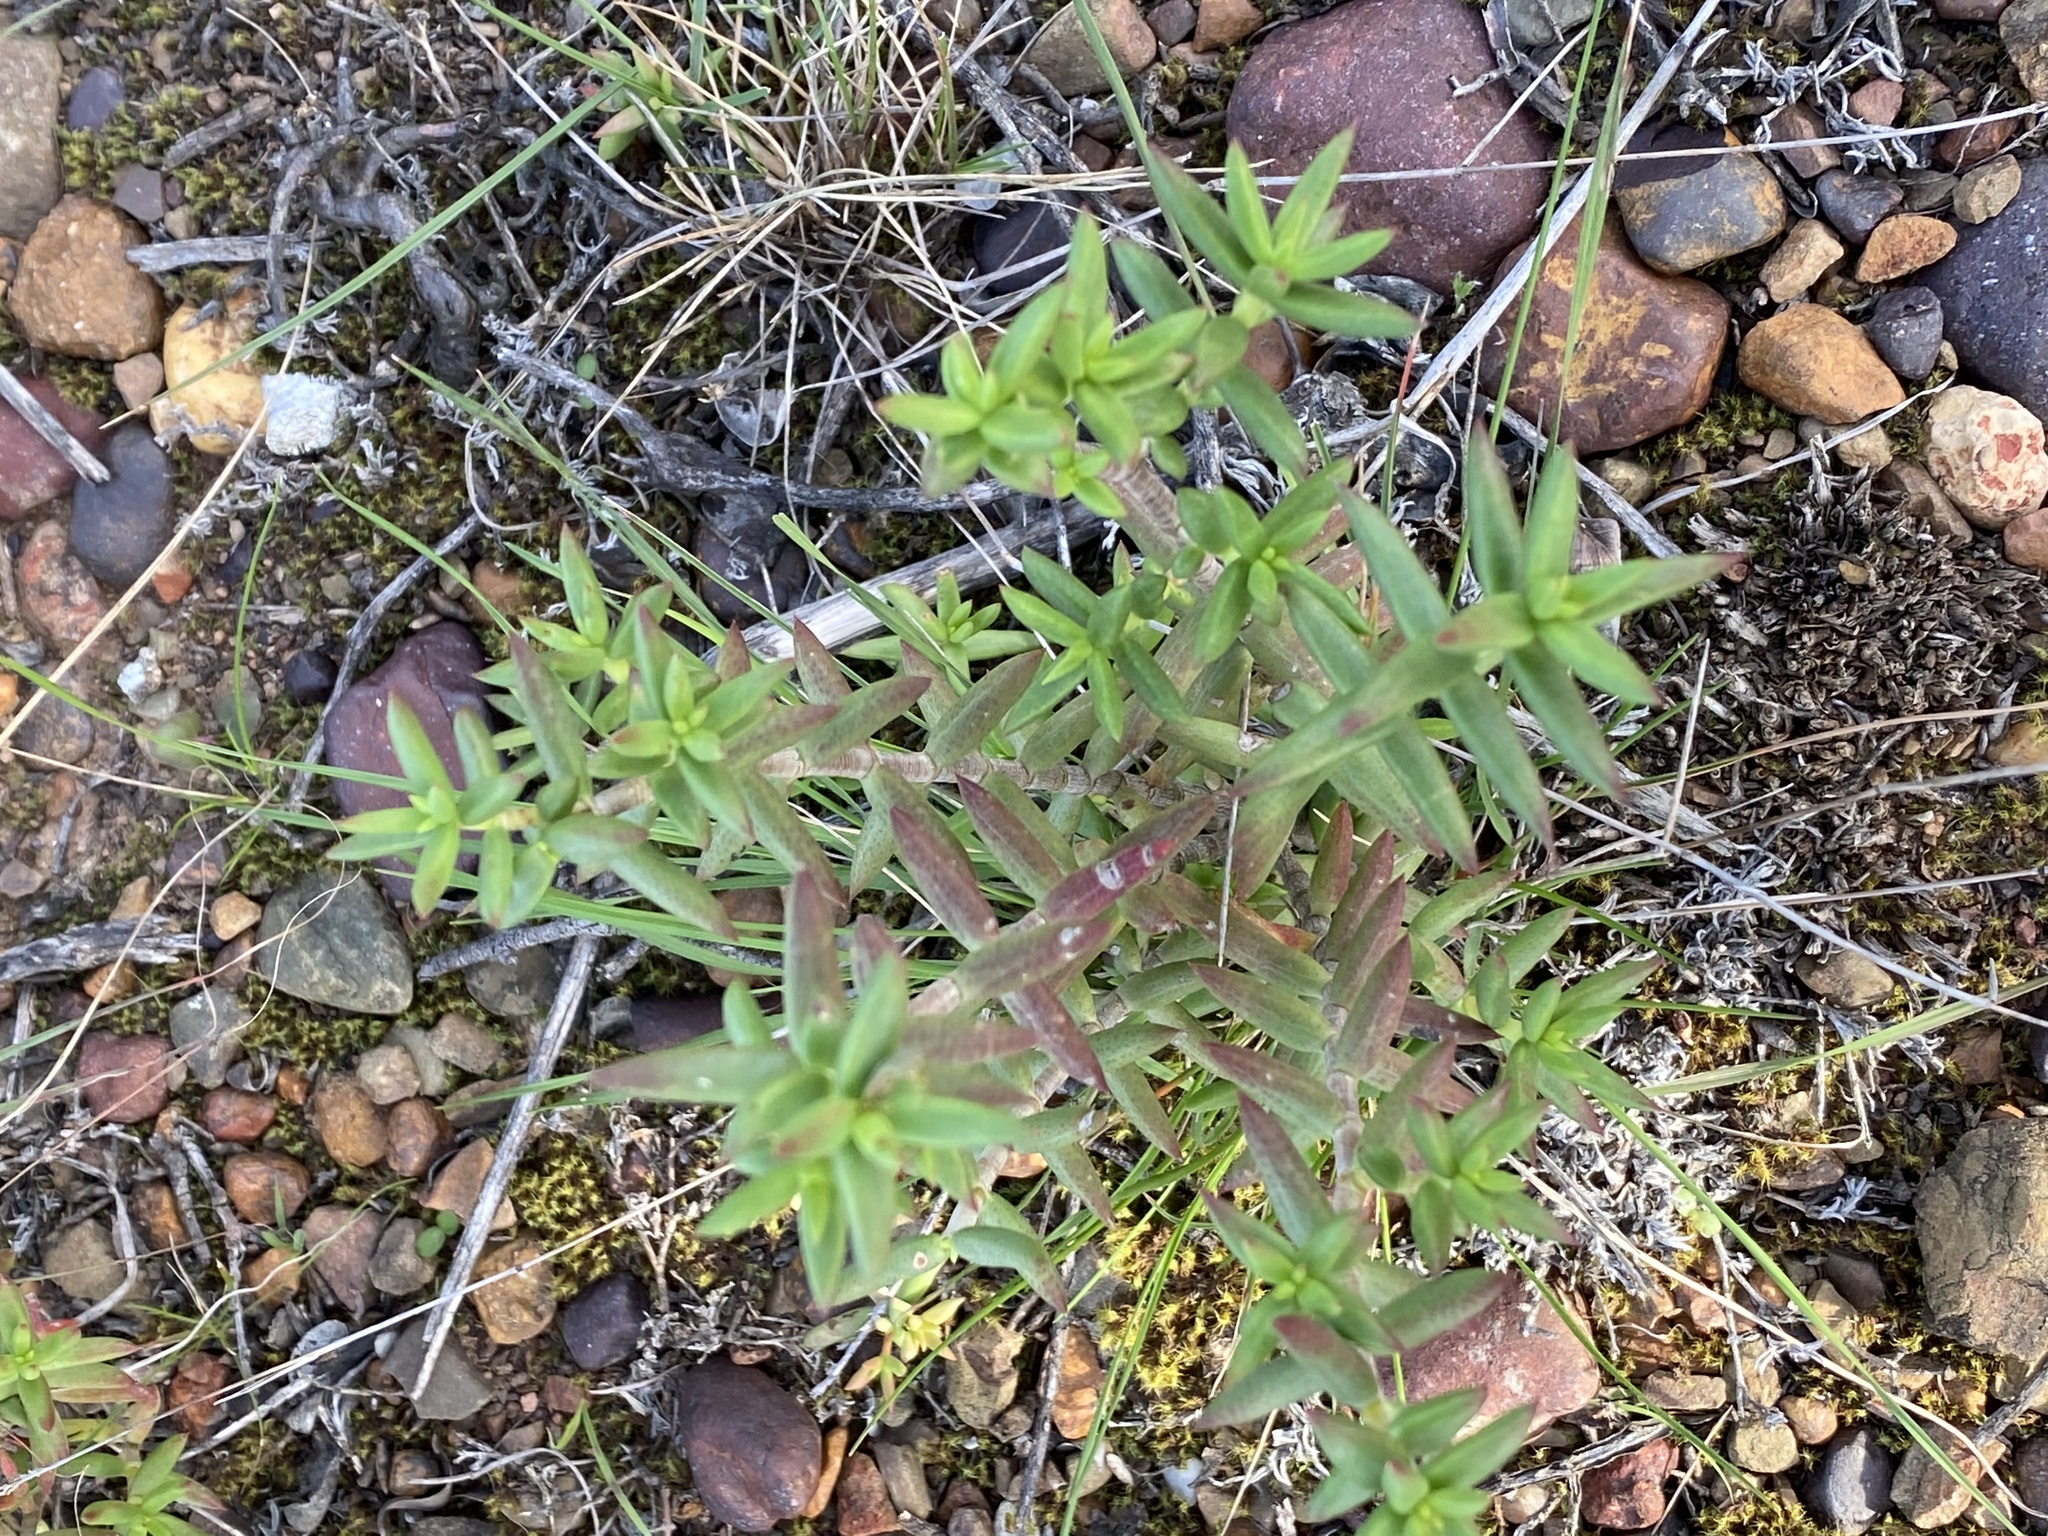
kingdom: Plantae
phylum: Tracheophyta
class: Magnoliopsida
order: Saxifragales
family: Crassulaceae
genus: Crassula
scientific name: Crassula tetragona
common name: Pygmyweed
